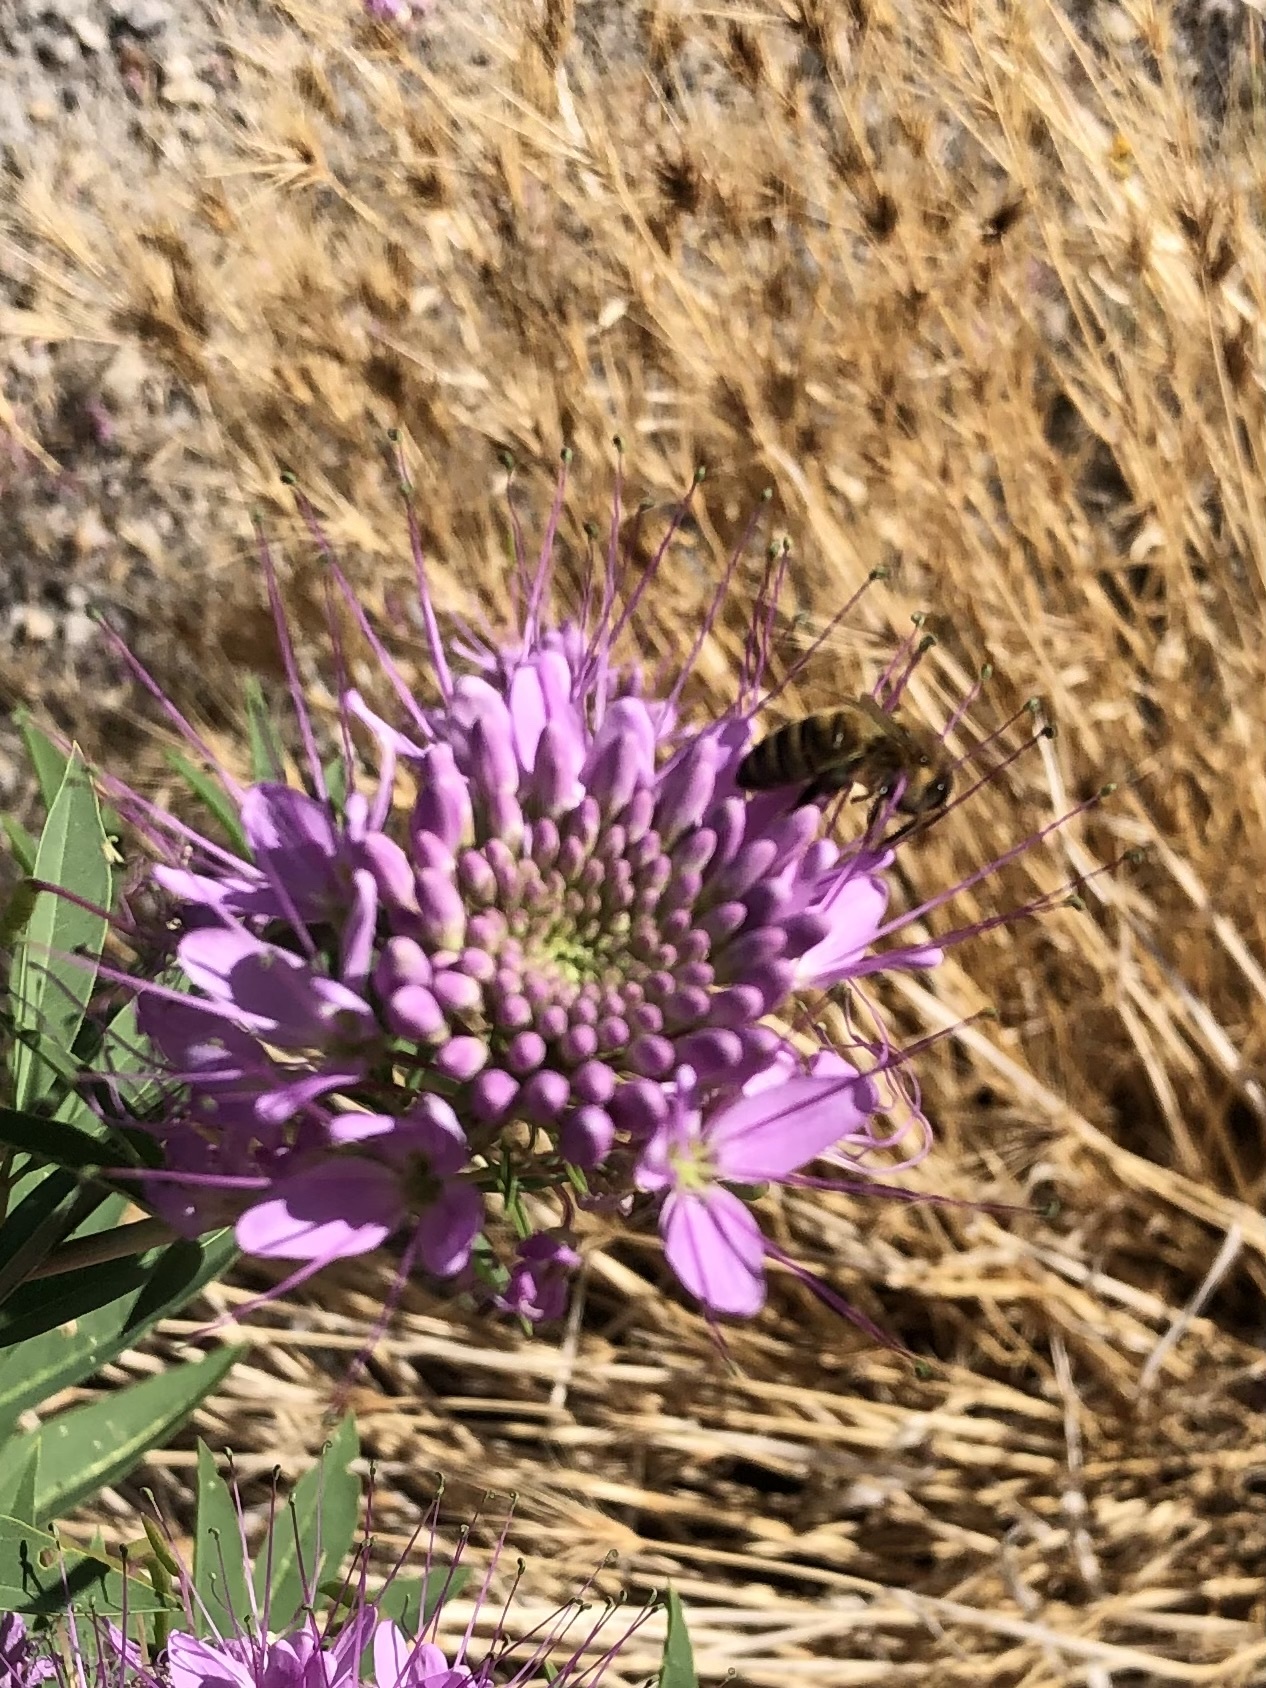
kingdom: Animalia
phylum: Arthropoda
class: Insecta
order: Hymenoptera
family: Apidae
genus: Apis
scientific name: Apis mellifera
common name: Honey bee
